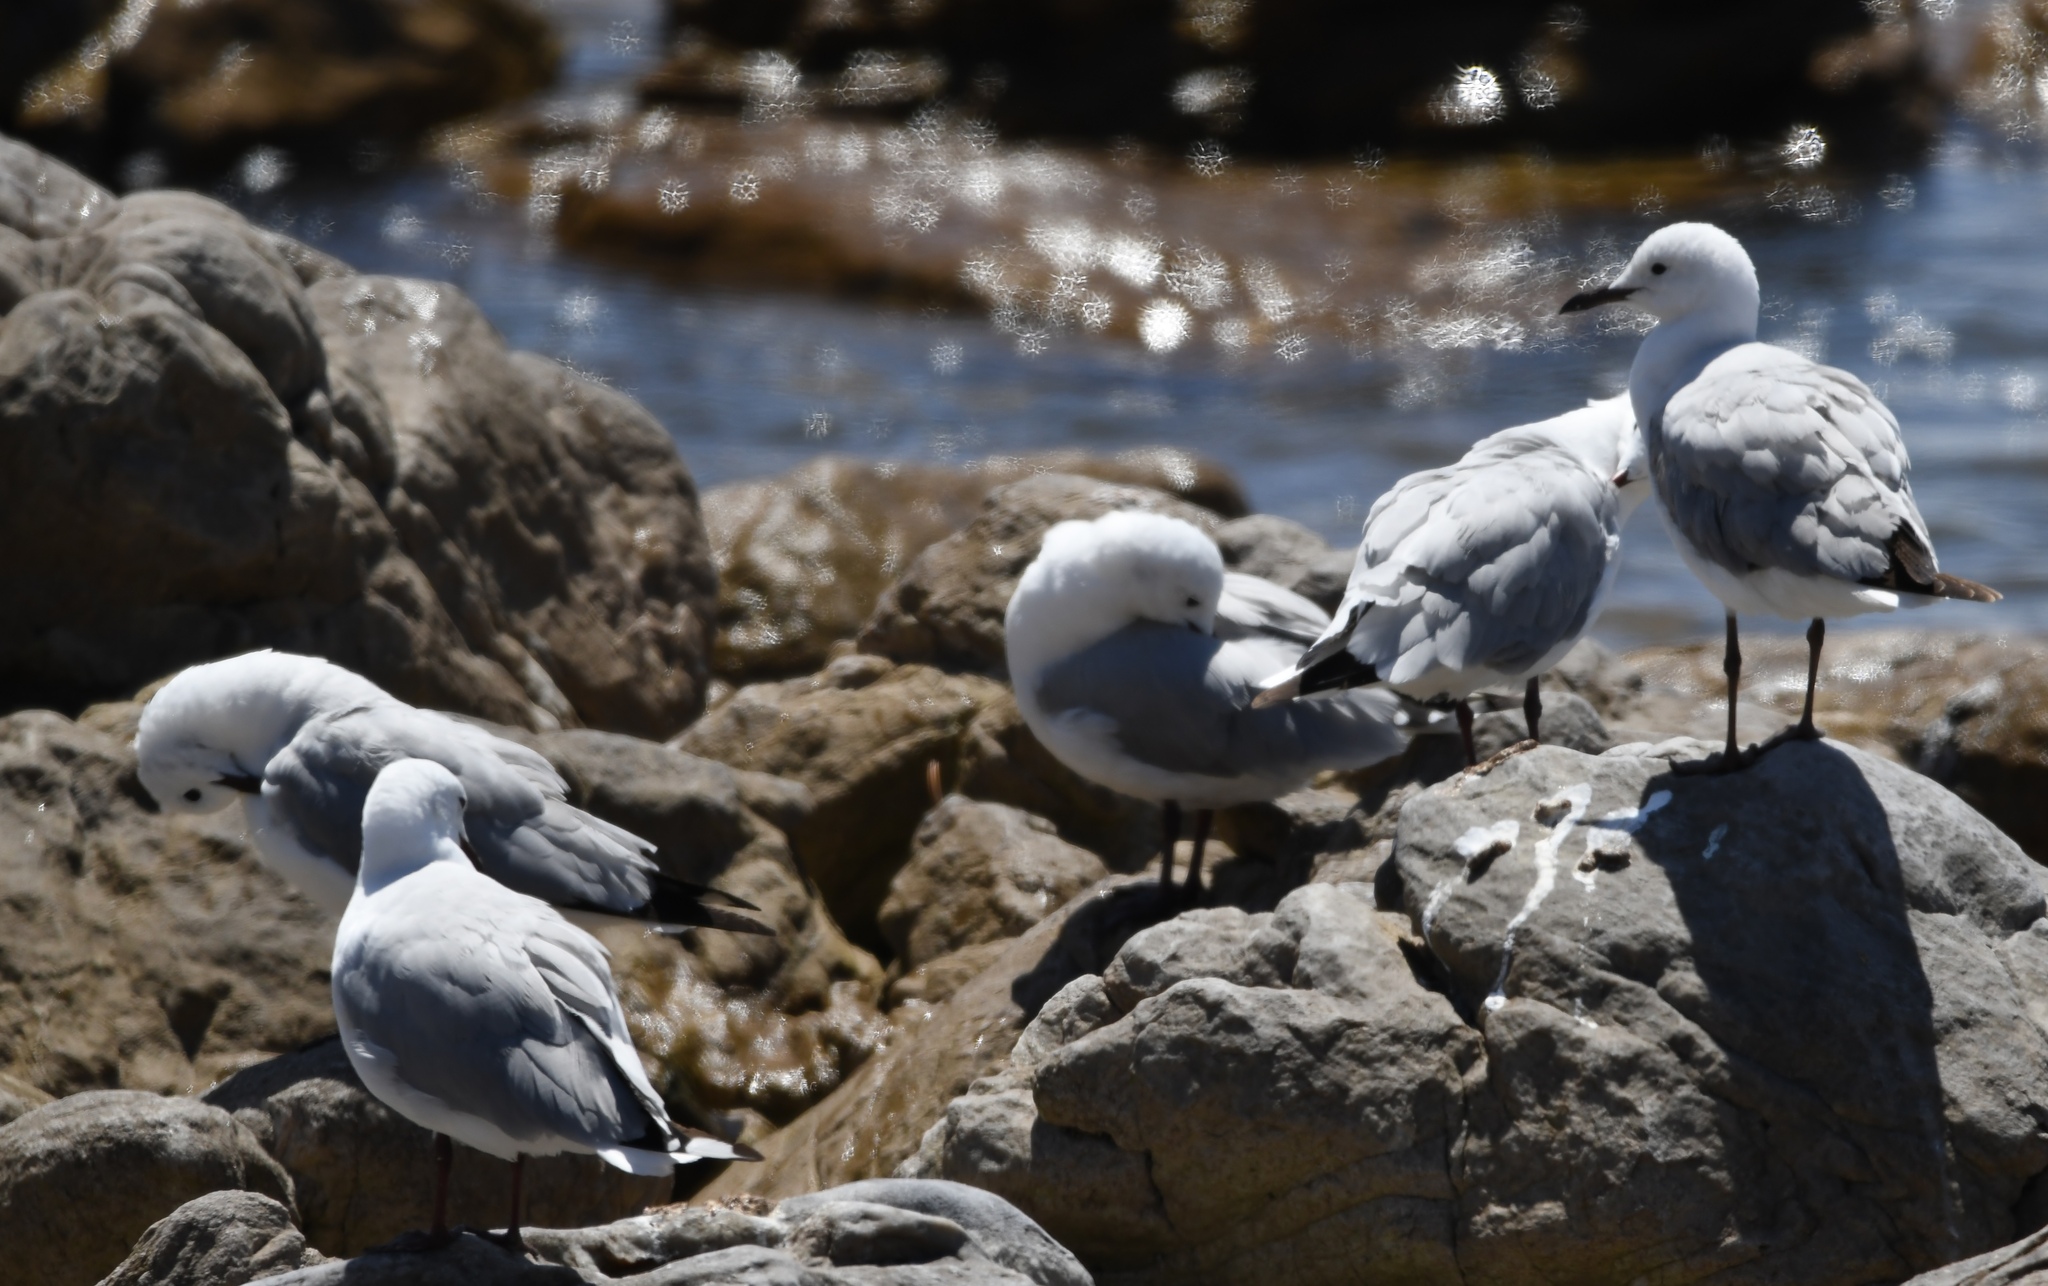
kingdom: Animalia
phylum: Chordata
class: Aves
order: Charadriiformes
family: Laridae
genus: Chroicocephalus
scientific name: Chroicocephalus hartlaubii
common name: Hartlaub's gull
